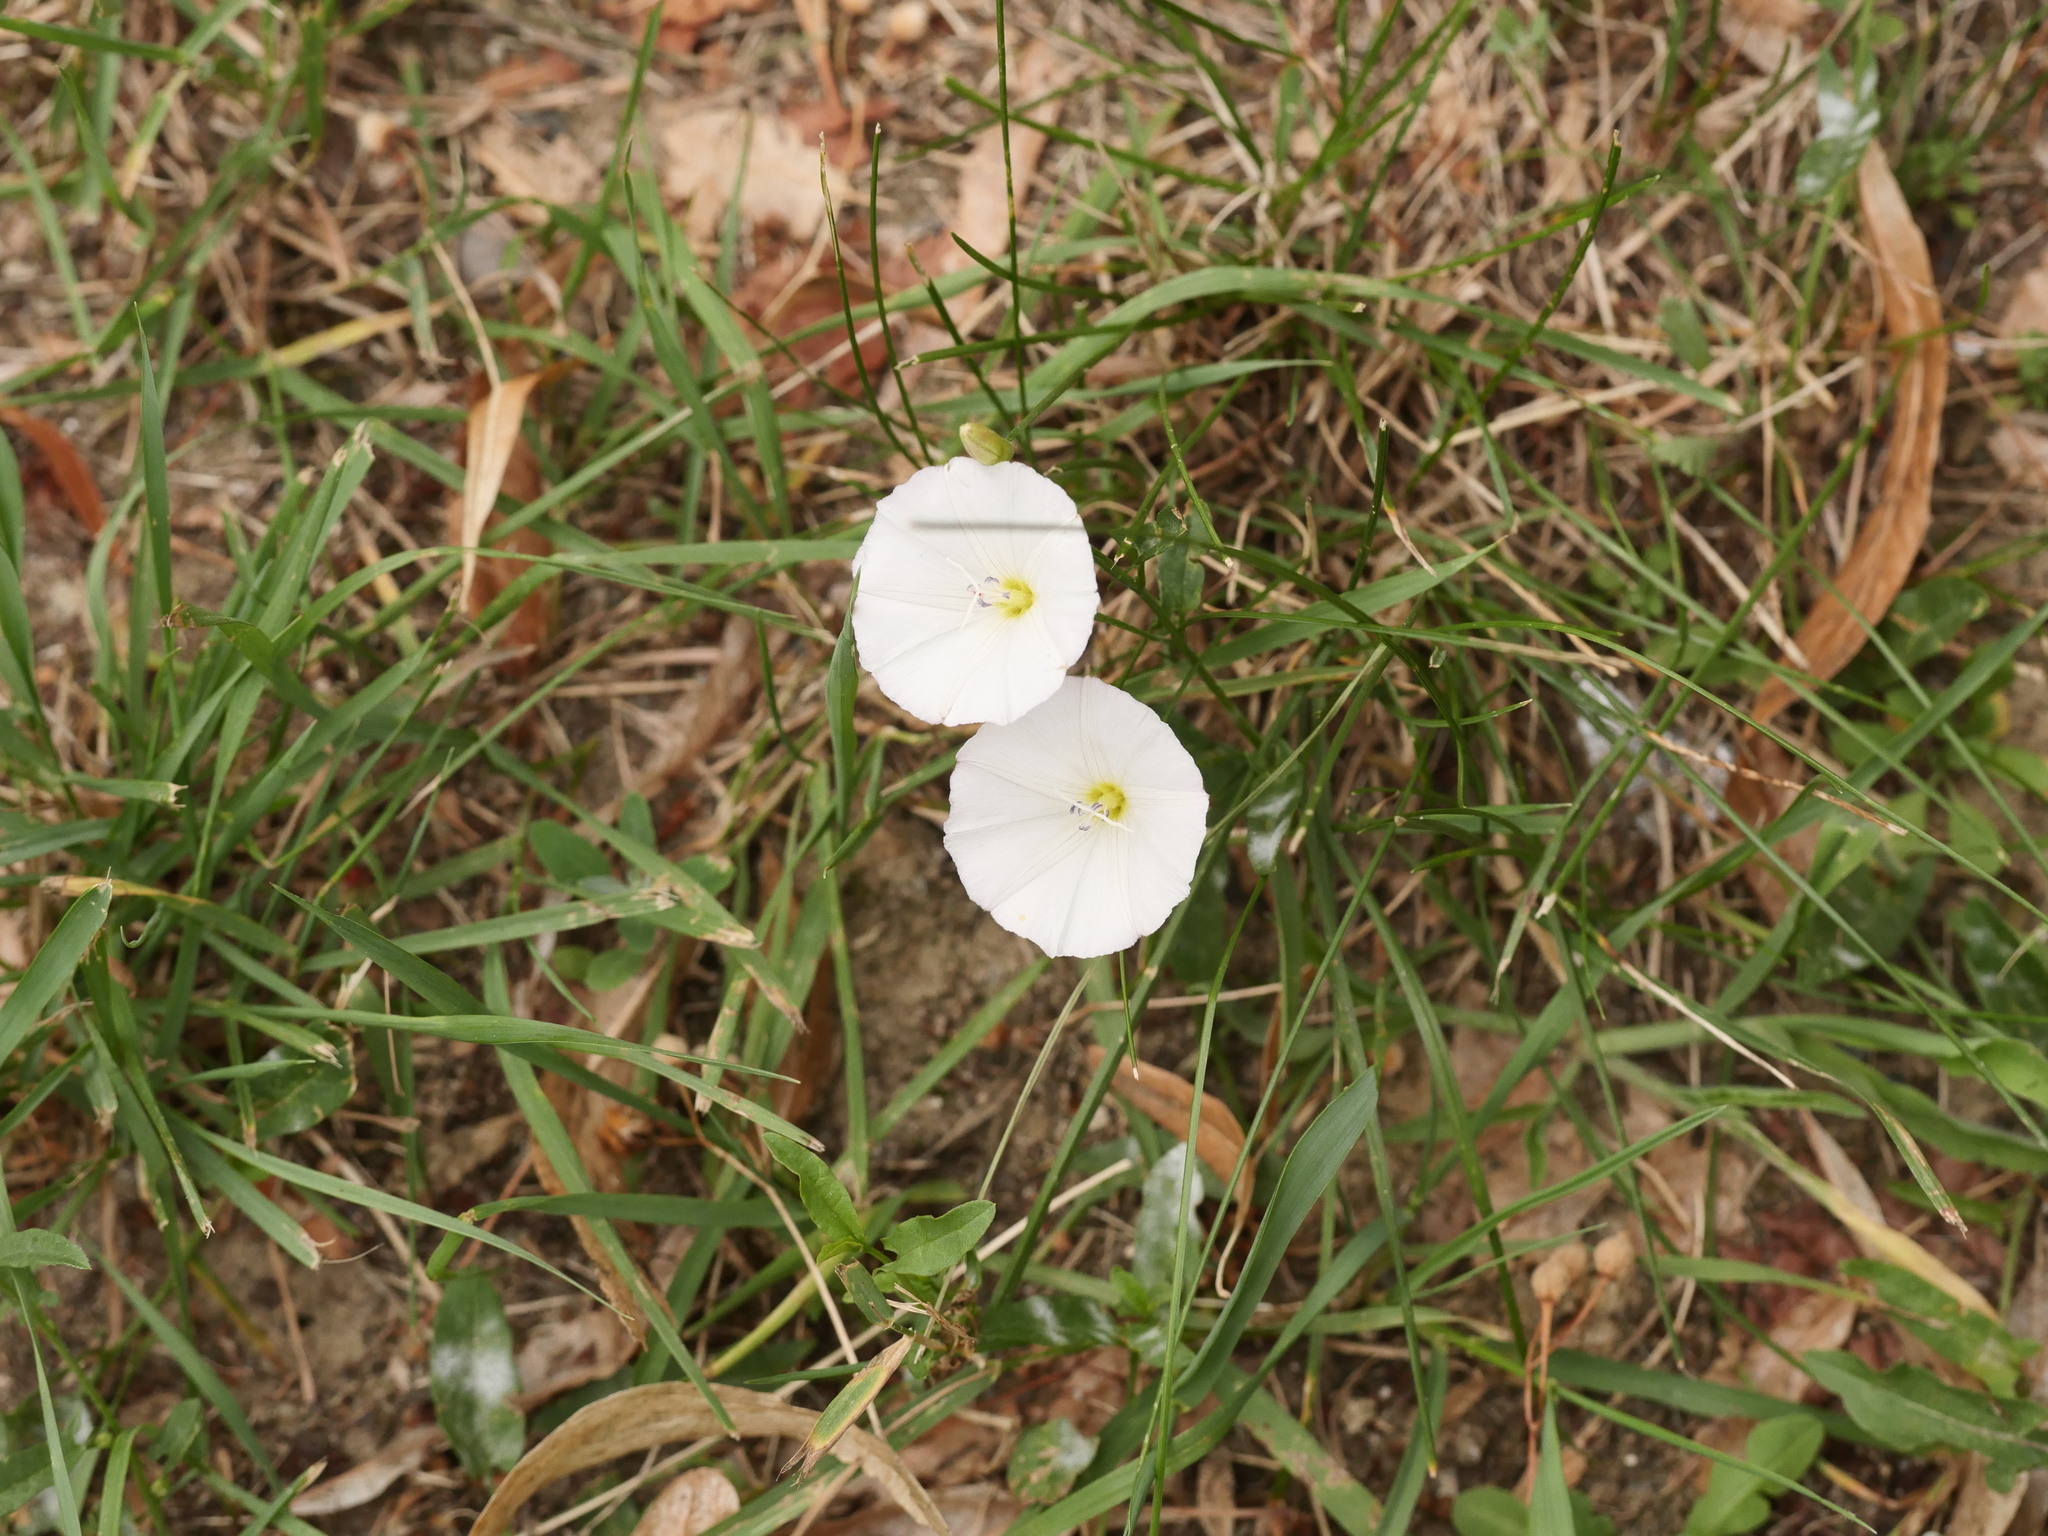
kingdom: Plantae
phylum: Tracheophyta
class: Magnoliopsida
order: Solanales
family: Convolvulaceae
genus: Convolvulus
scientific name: Convolvulus arvensis
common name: Field bindweed
